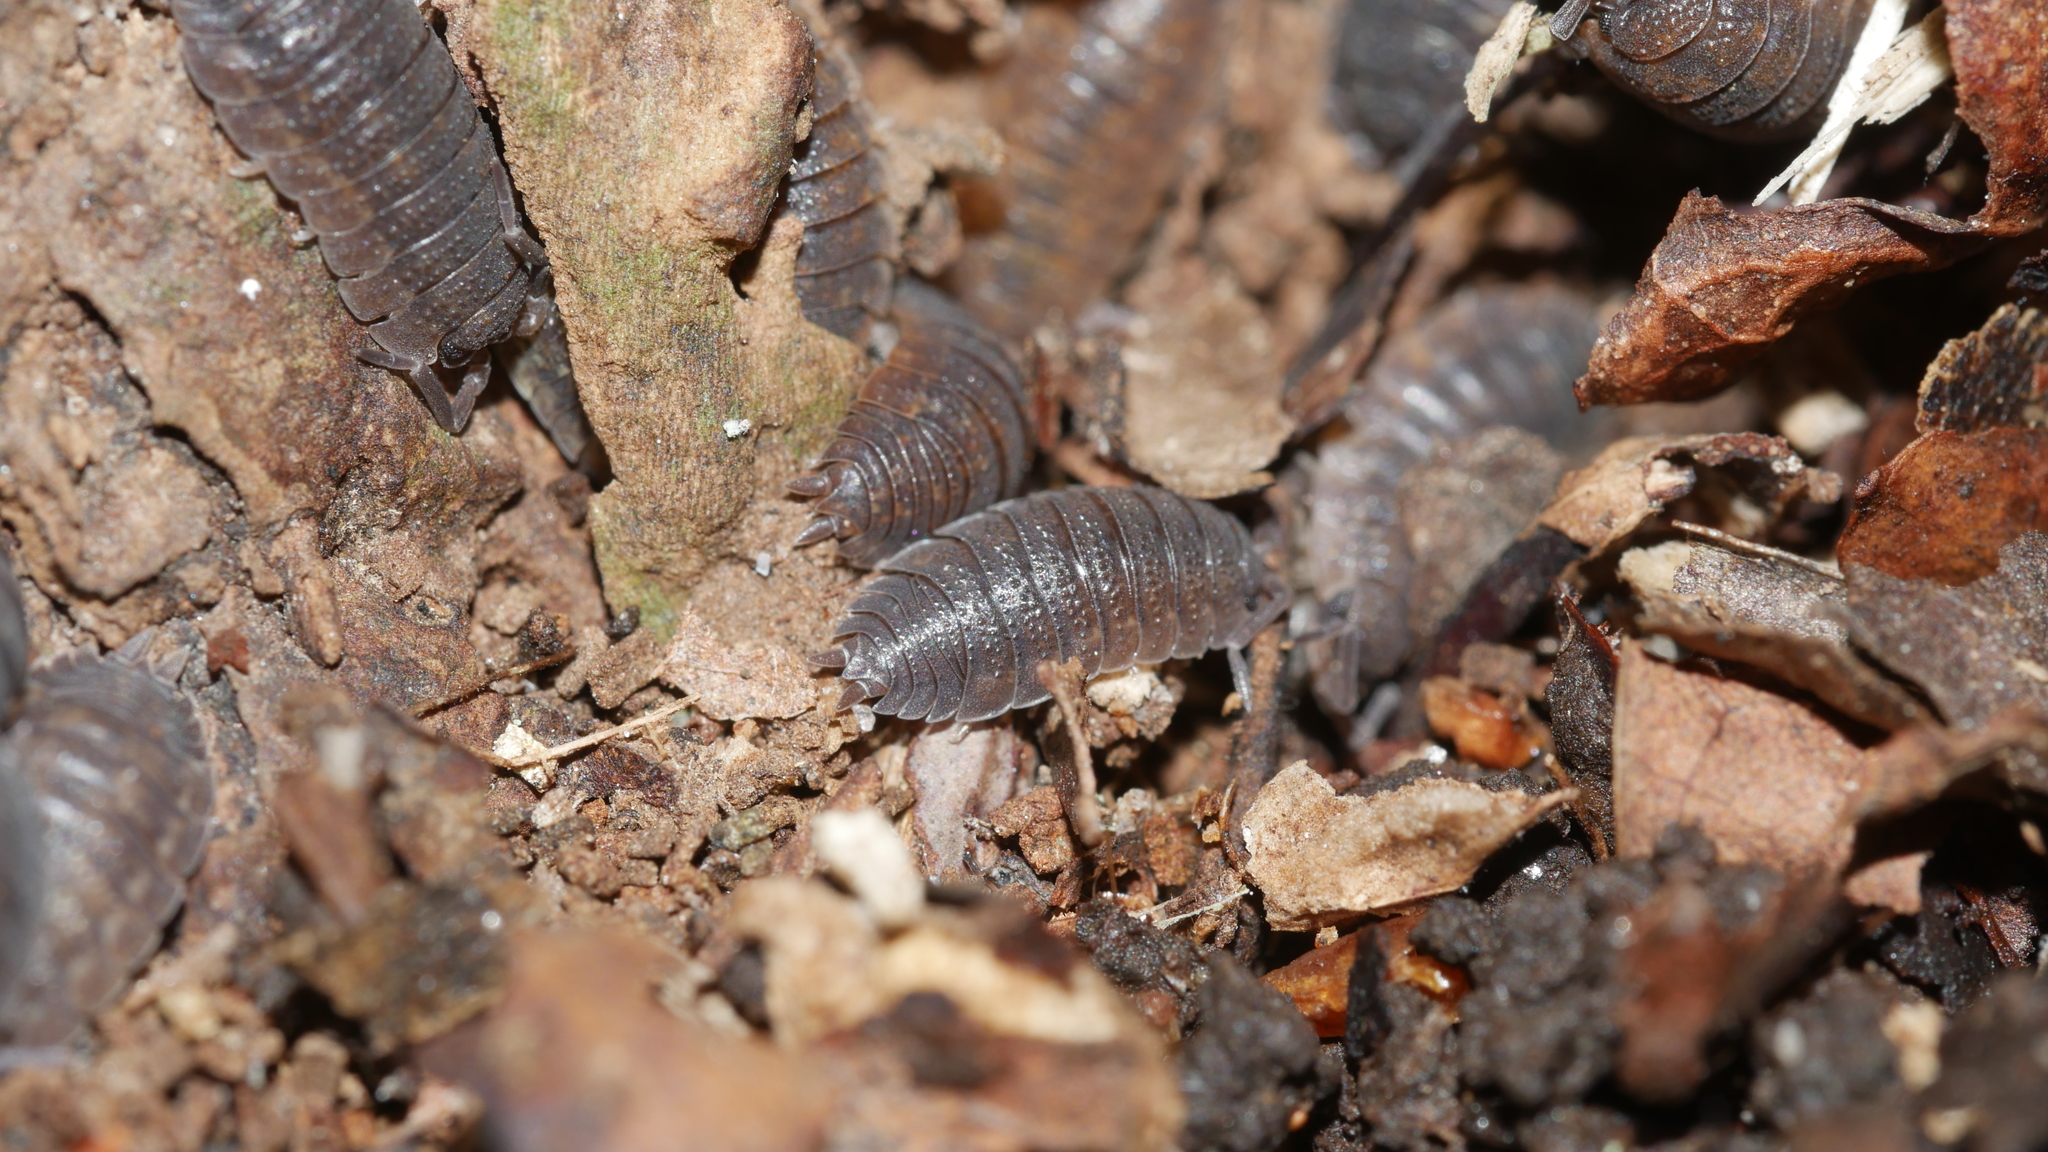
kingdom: Animalia
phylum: Arthropoda
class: Malacostraca
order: Isopoda
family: Porcellionidae
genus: Porcellio
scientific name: Porcellio scaber
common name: Common rough woodlouse
